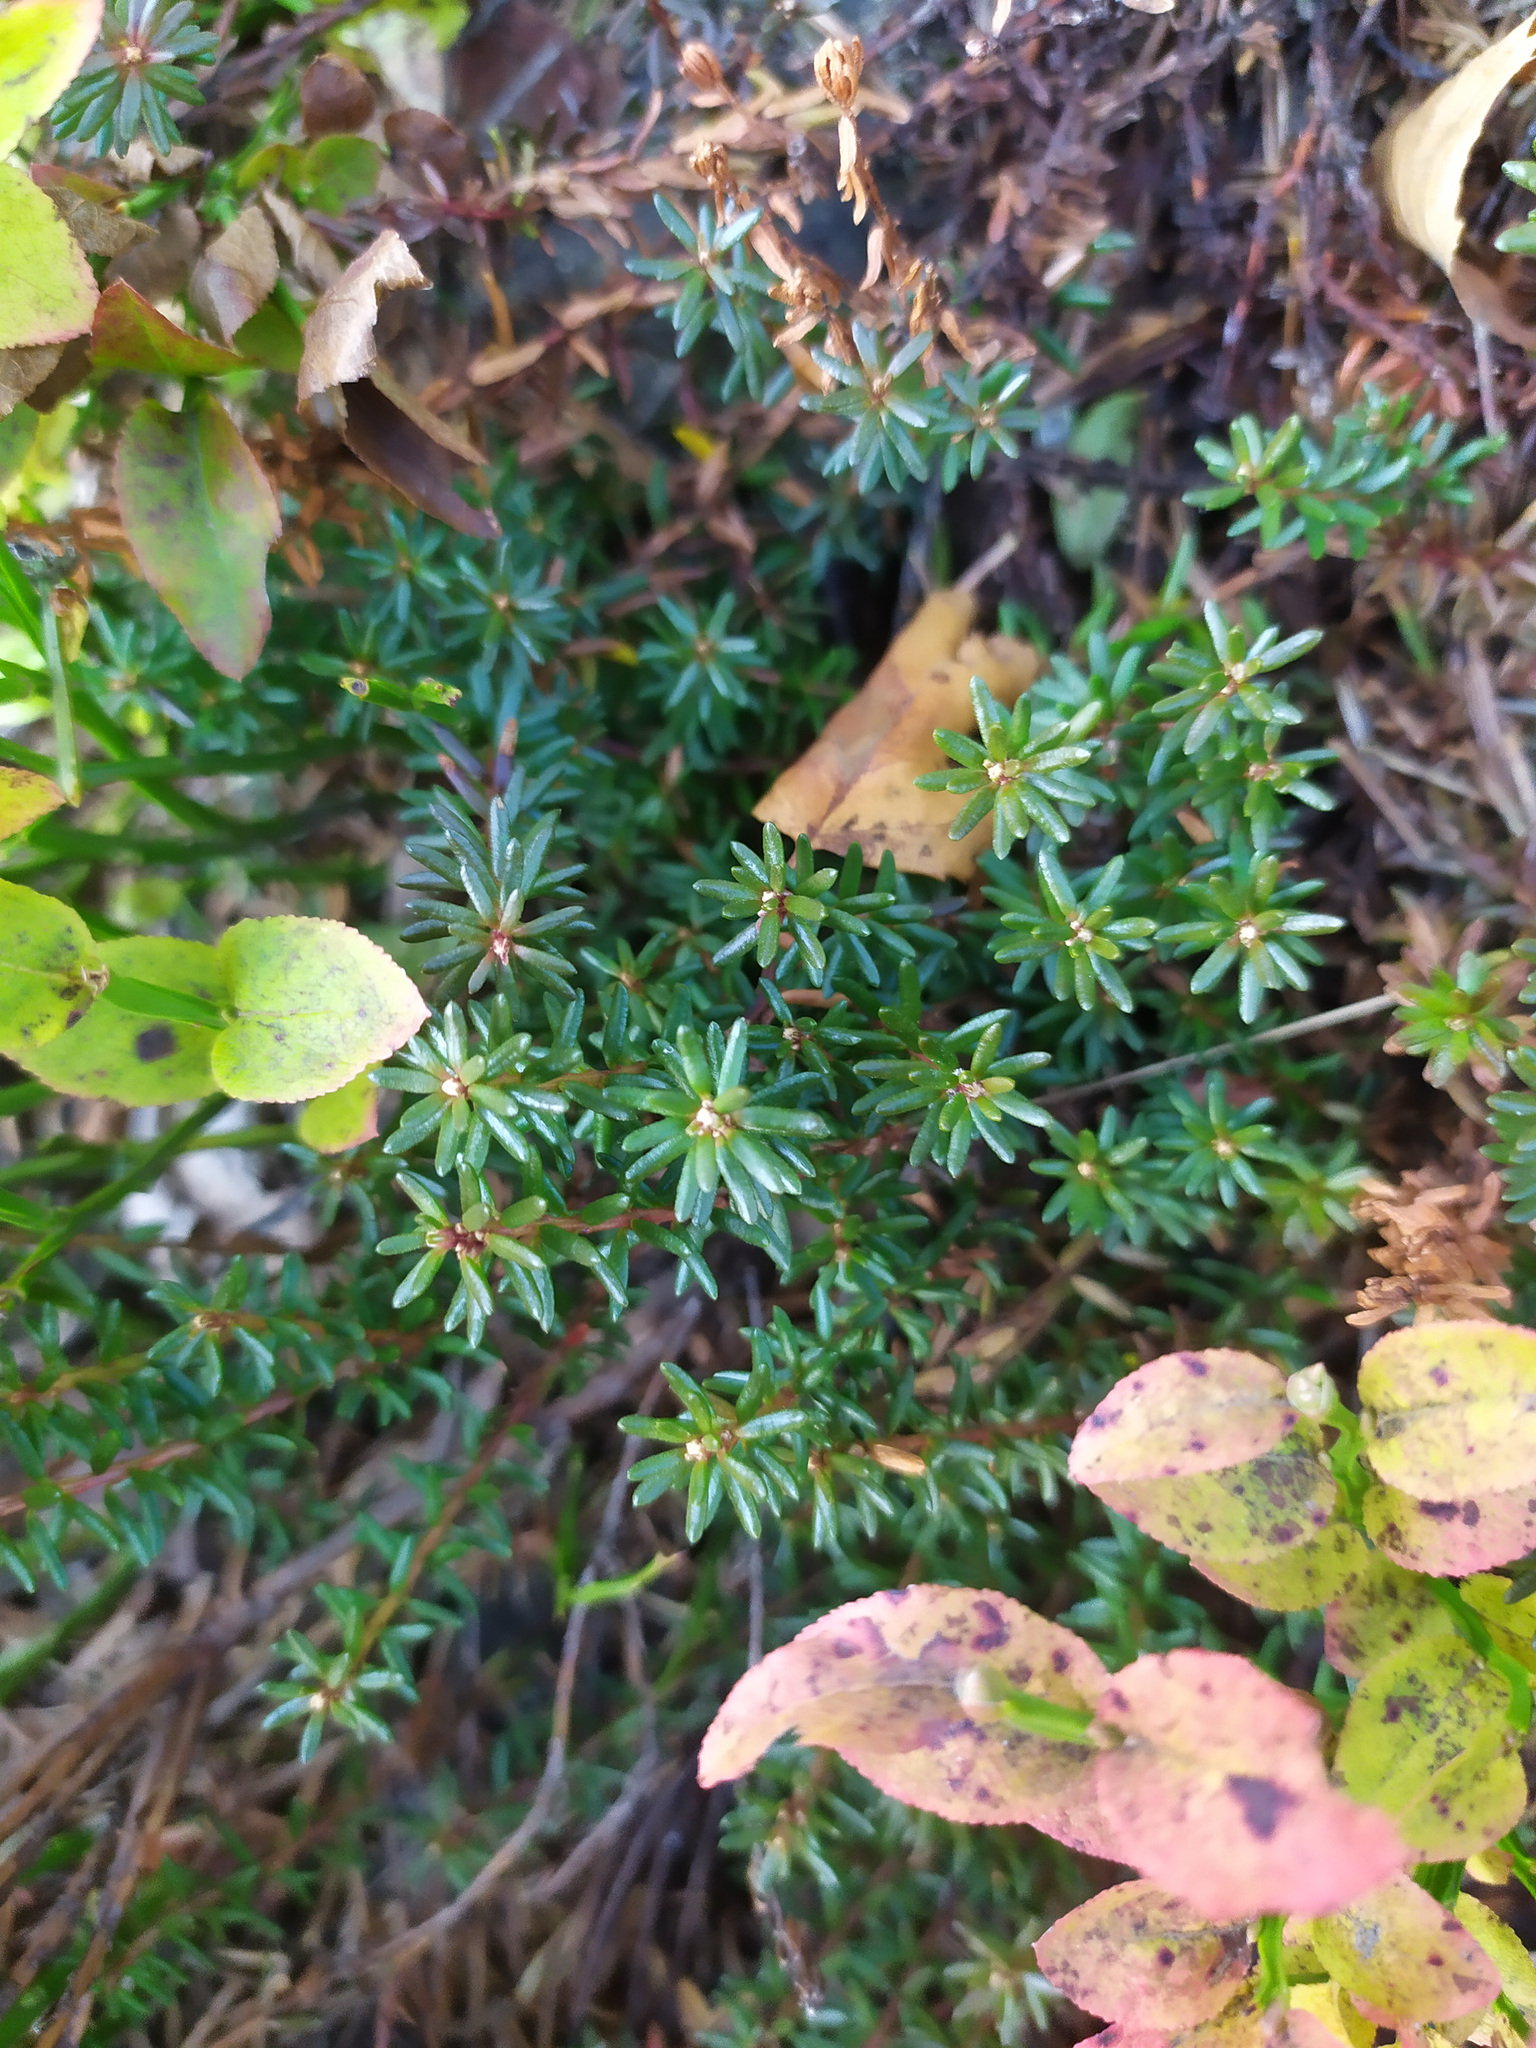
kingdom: Plantae
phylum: Tracheophyta
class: Magnoliopsida
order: Ericales
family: Ericaceae
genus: Empetrum
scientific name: Empetrum nigrum
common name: Black crowberry
